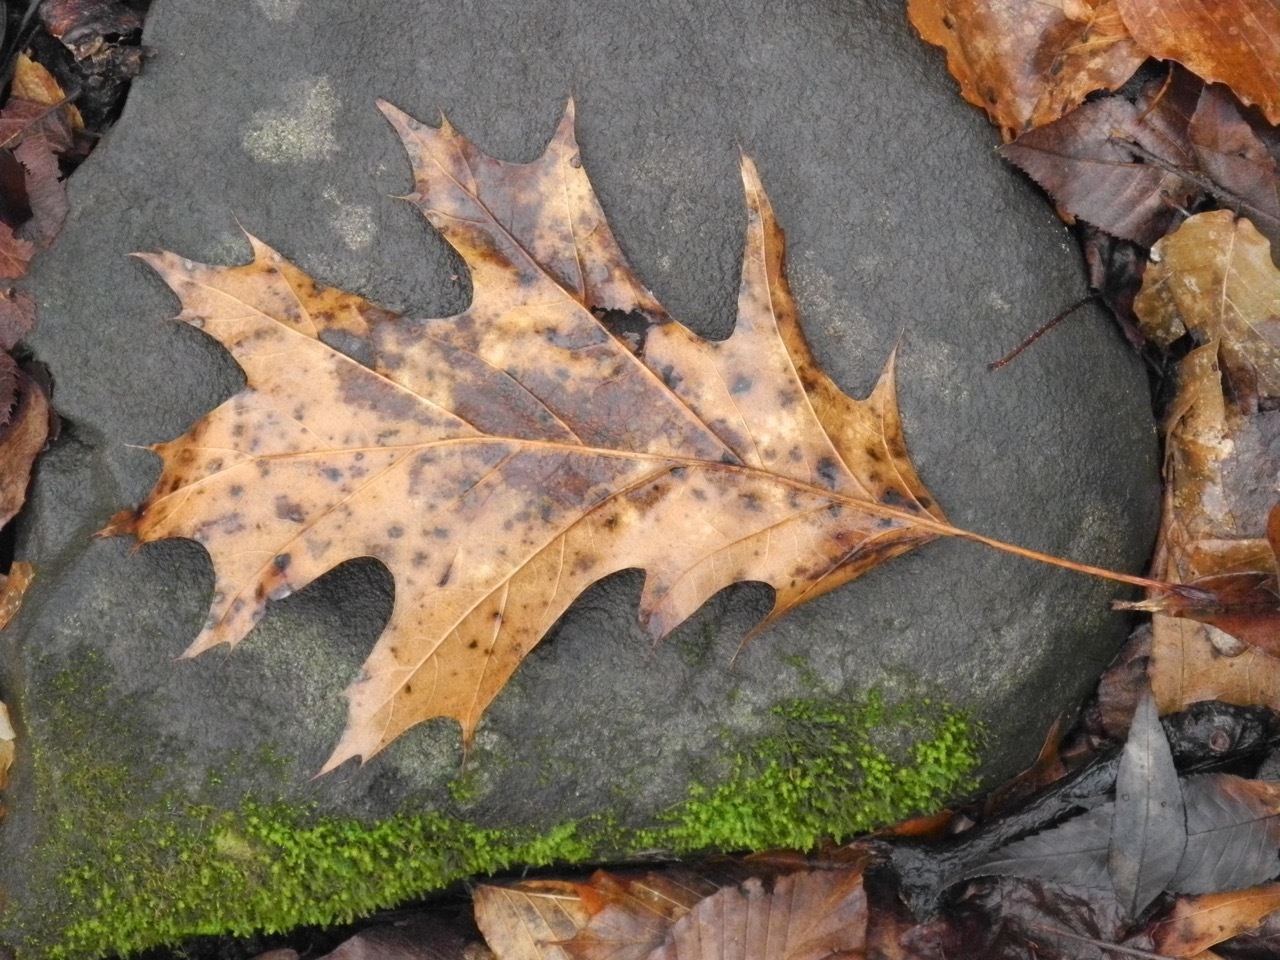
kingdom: Plantae
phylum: Tracheophyta
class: Magnoliopsida
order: Fagales
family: Fagaceae
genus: Quercus
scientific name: Quercus rubra
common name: Red oak
